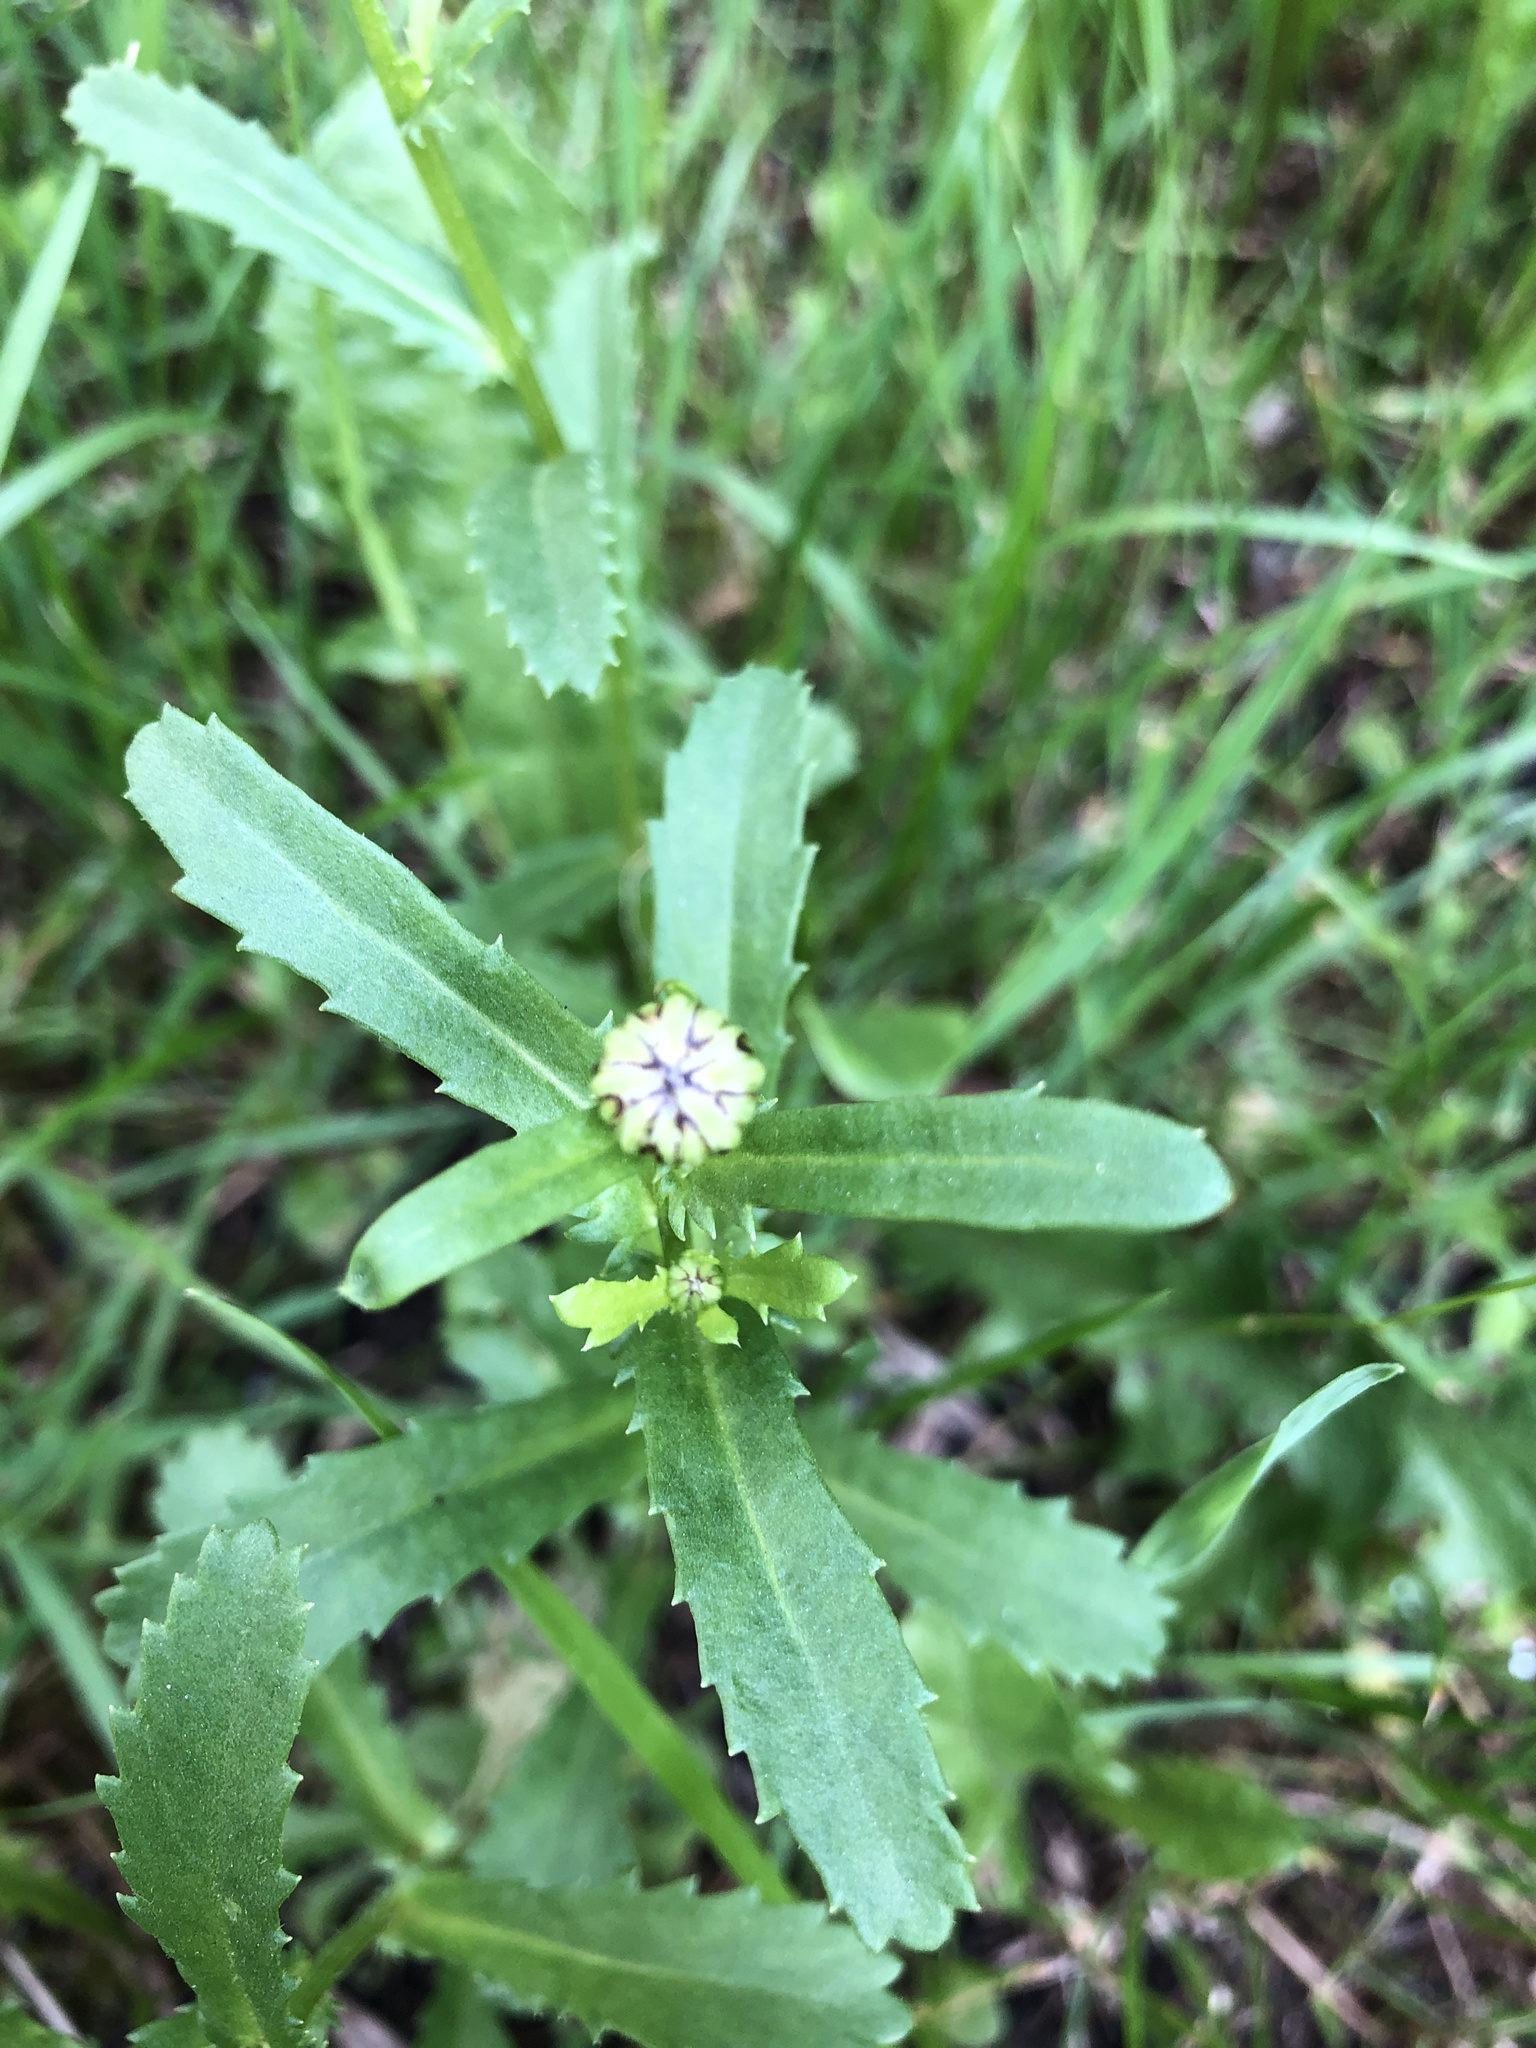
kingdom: Plantae
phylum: Tracheophyta
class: Magnoliopsida
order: Asterales
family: Asteraceae
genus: Leucanthemum
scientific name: Leucanthemum vulgare
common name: Oxeye daisy
